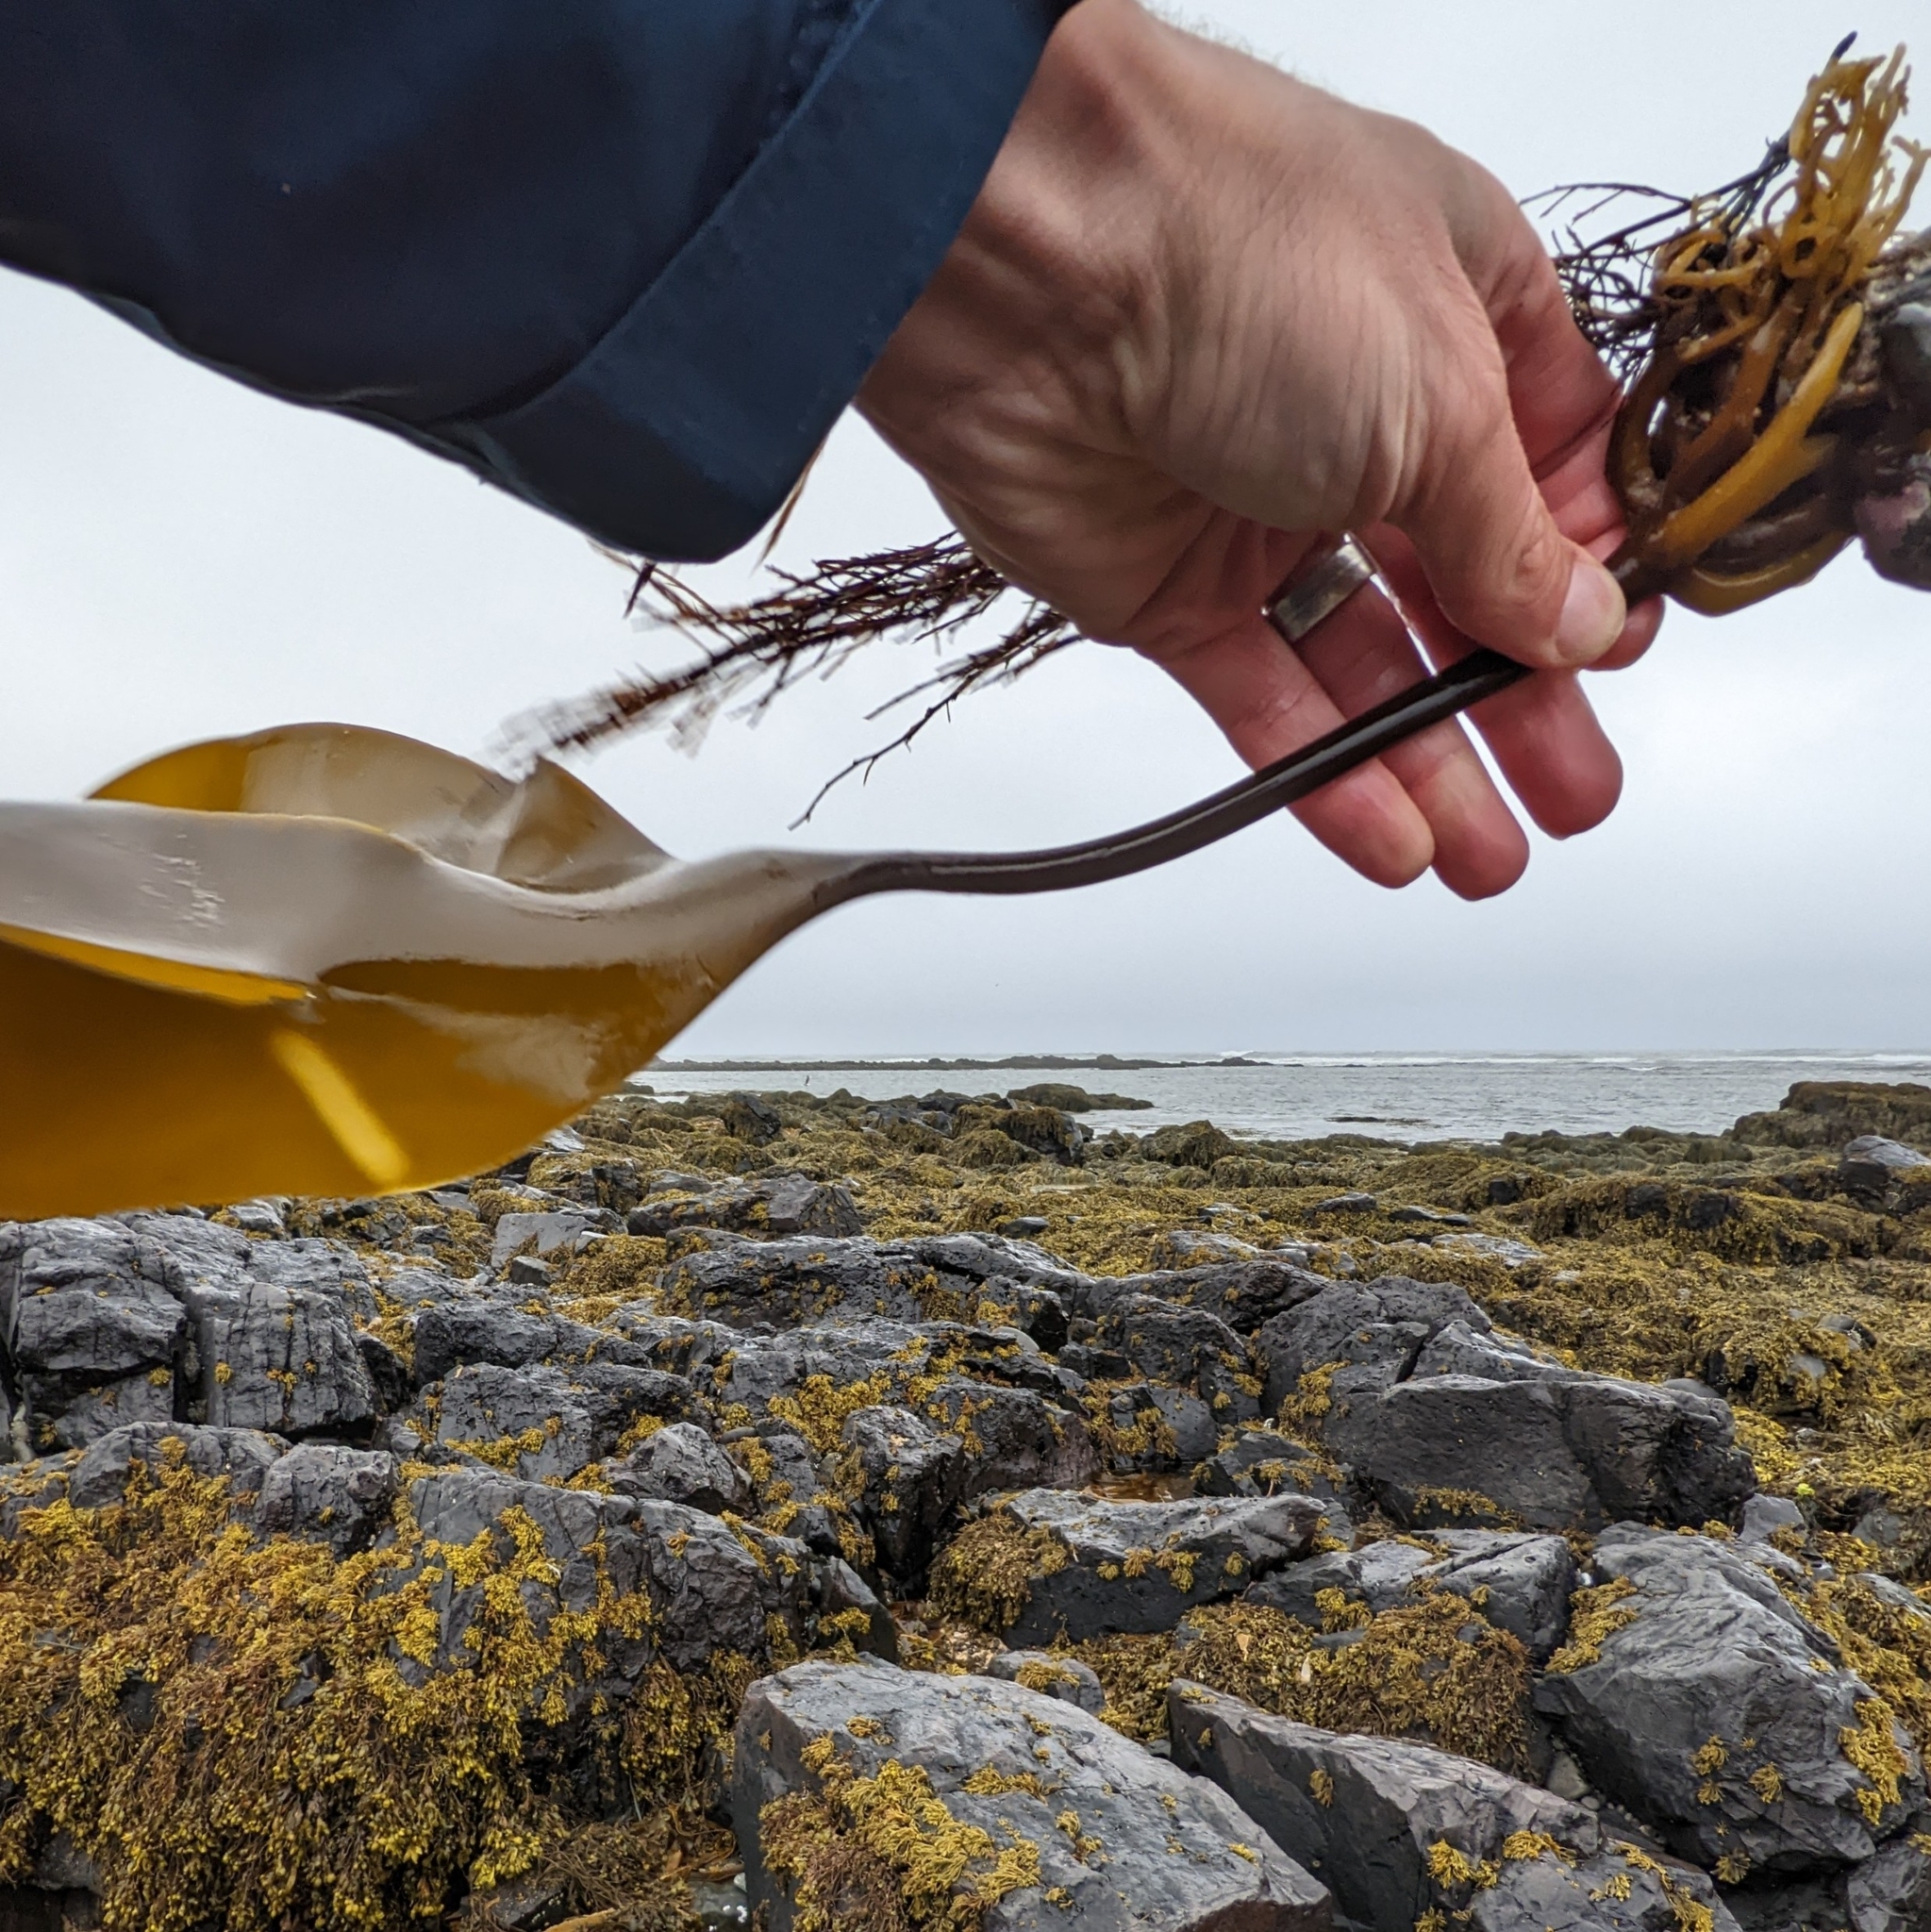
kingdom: Chromista
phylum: Ochrophyta
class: Phaeophyceae
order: Laminariales
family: Laminariaceae
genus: Laminaria
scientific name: Laminaria digitata
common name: Oarweed
